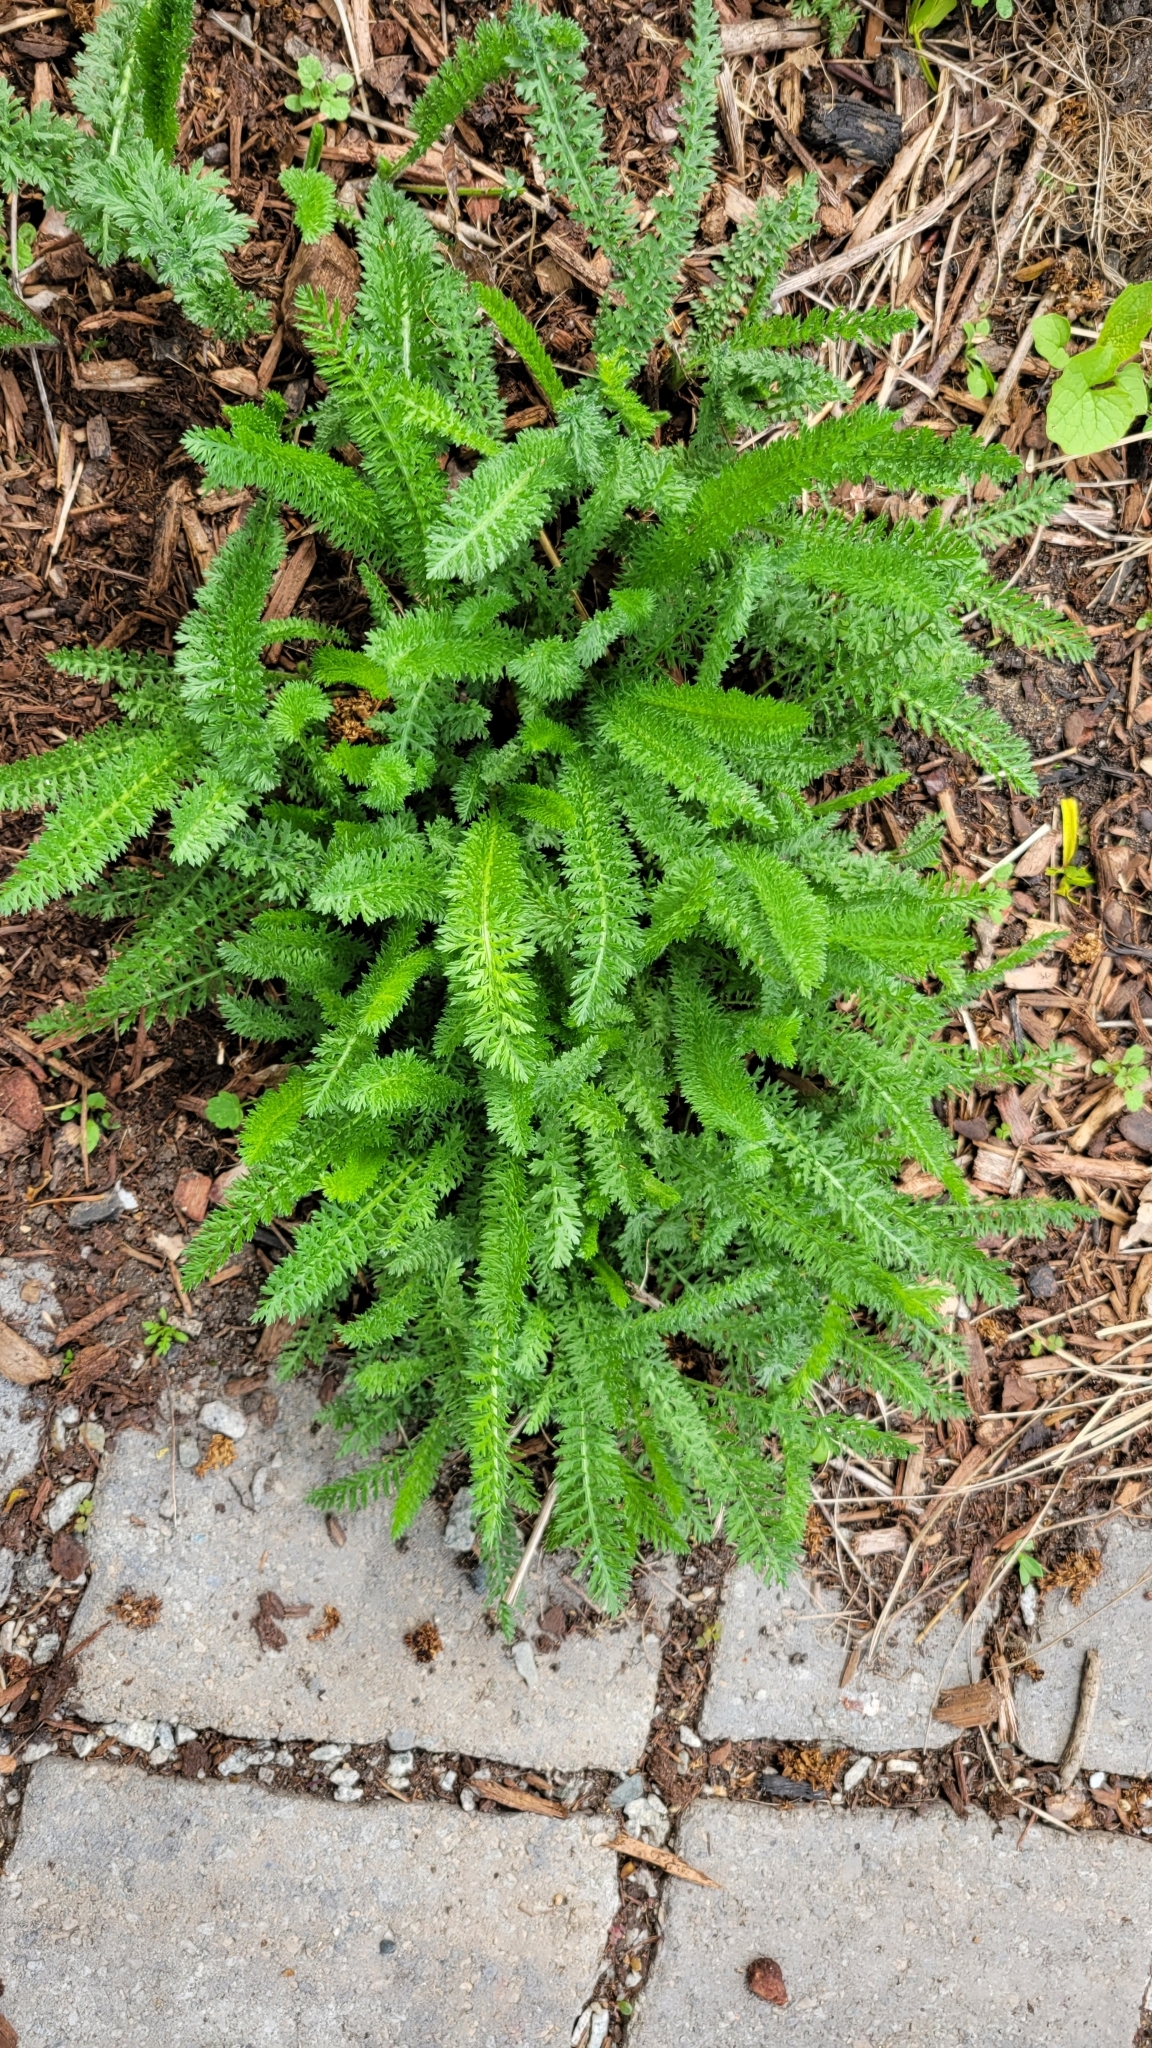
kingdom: Plantae
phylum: Tracheophyta
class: Magnoliopsida
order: Asterales
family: Asteraceae
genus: Achillea
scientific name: Achillea millefolium
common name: Yarrow
